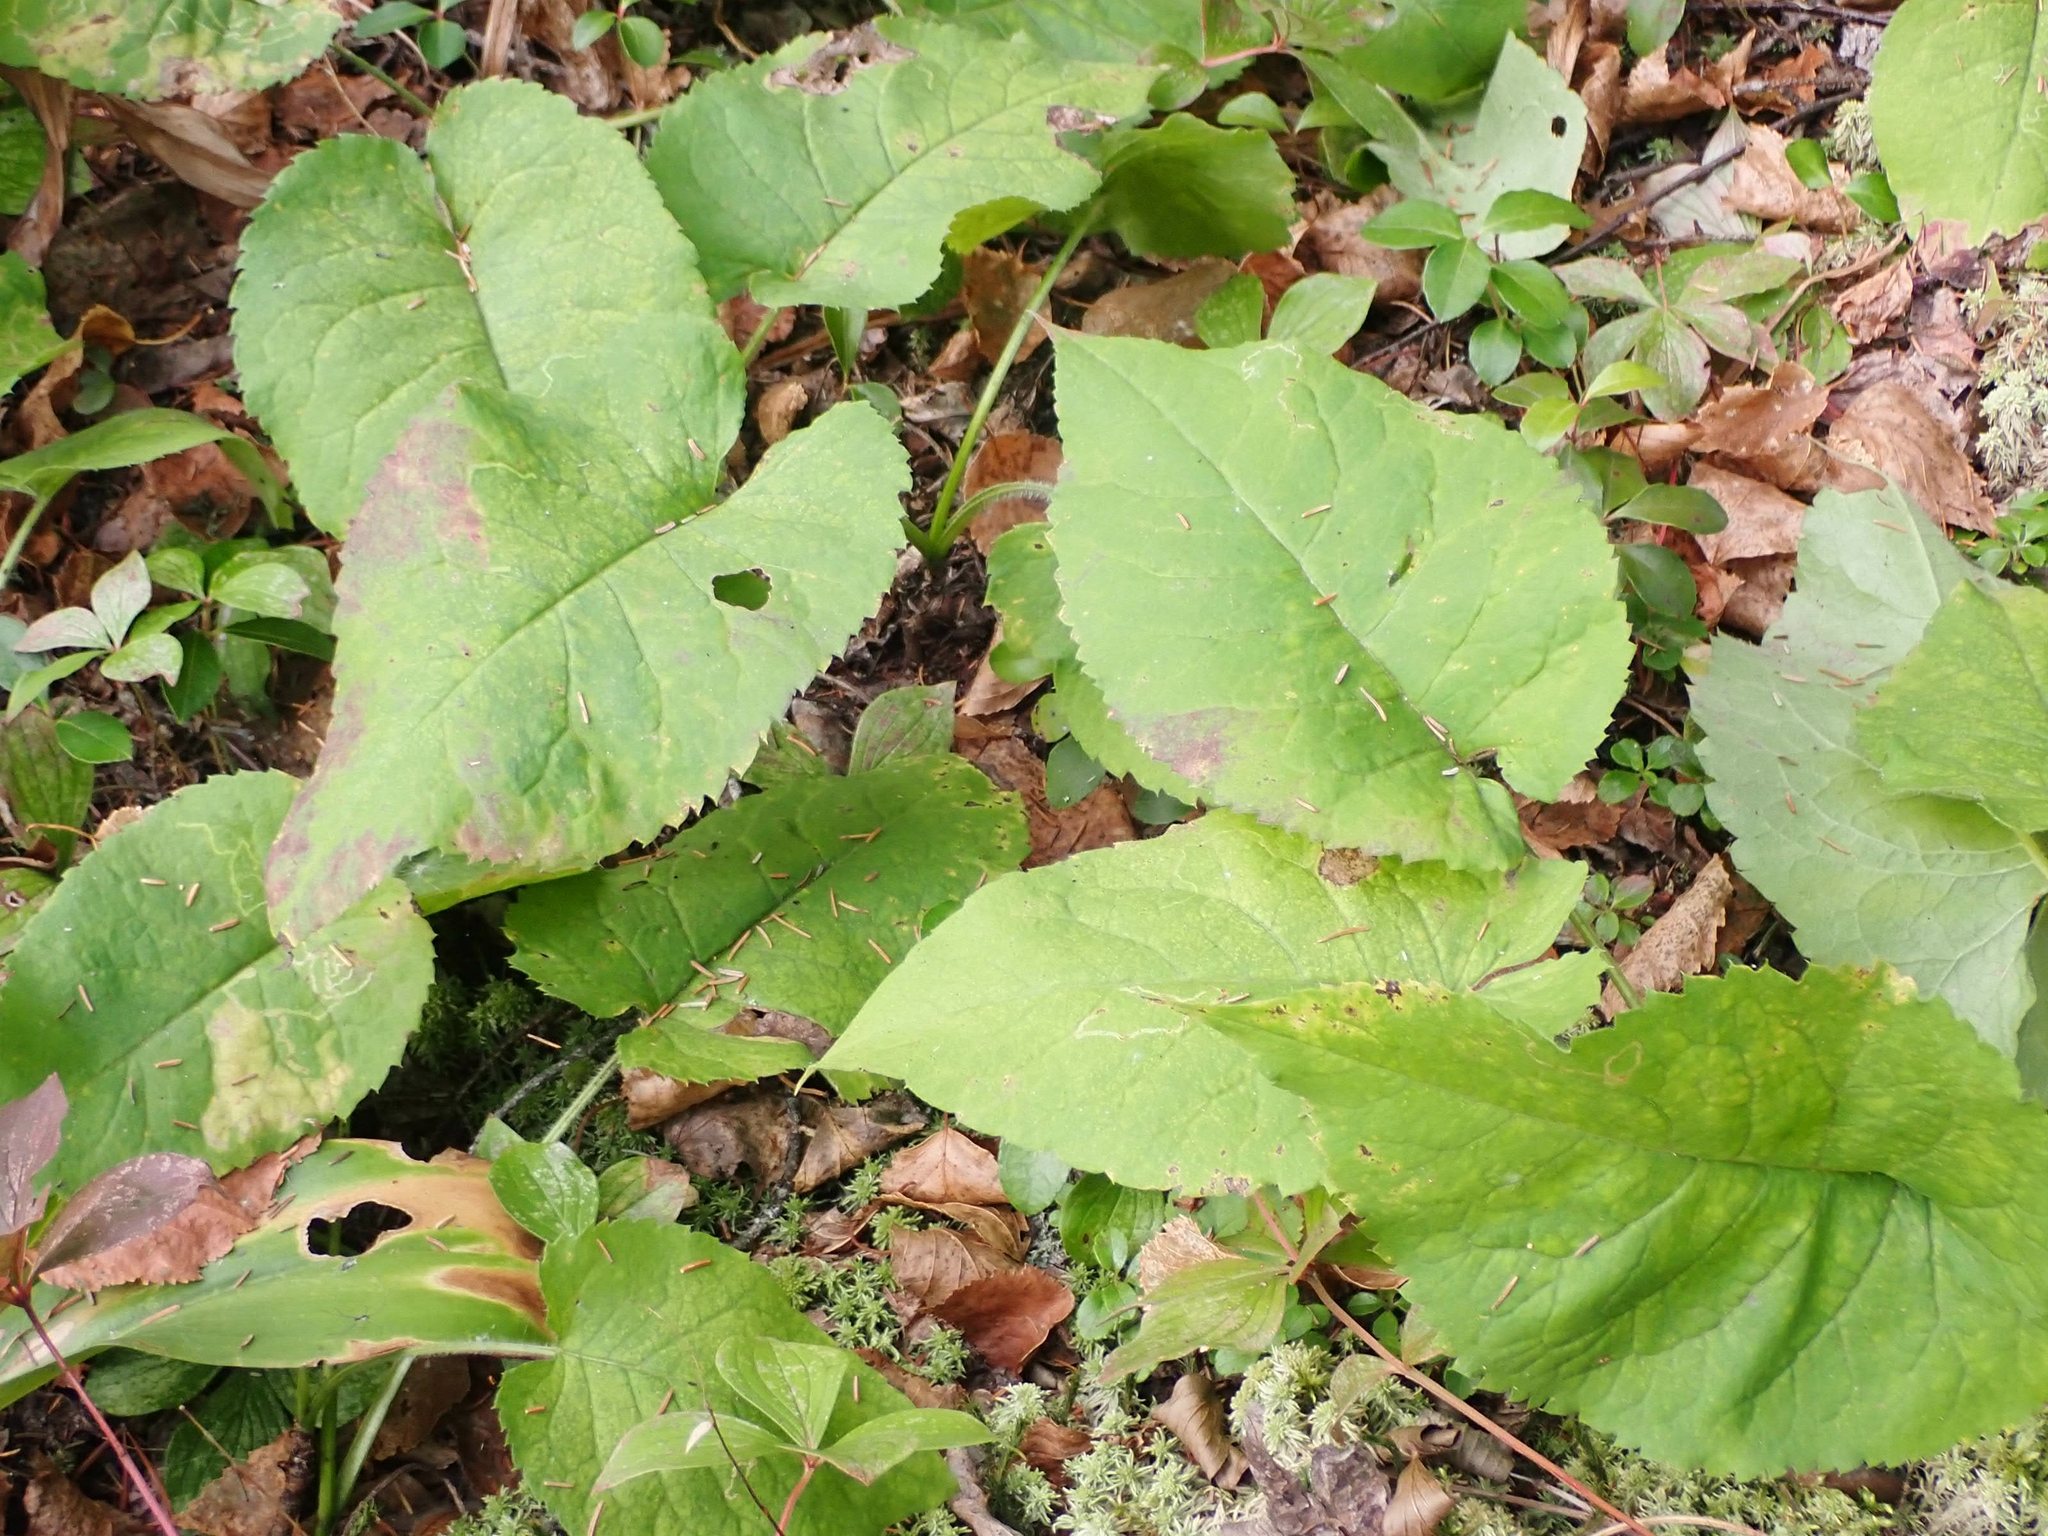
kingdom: Plantae
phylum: Tracheophyta
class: Magnoliopsida
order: Asterales
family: Asteraceae
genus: Eurybia
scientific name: Eurybia macrophylla
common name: Big-leaved aster
